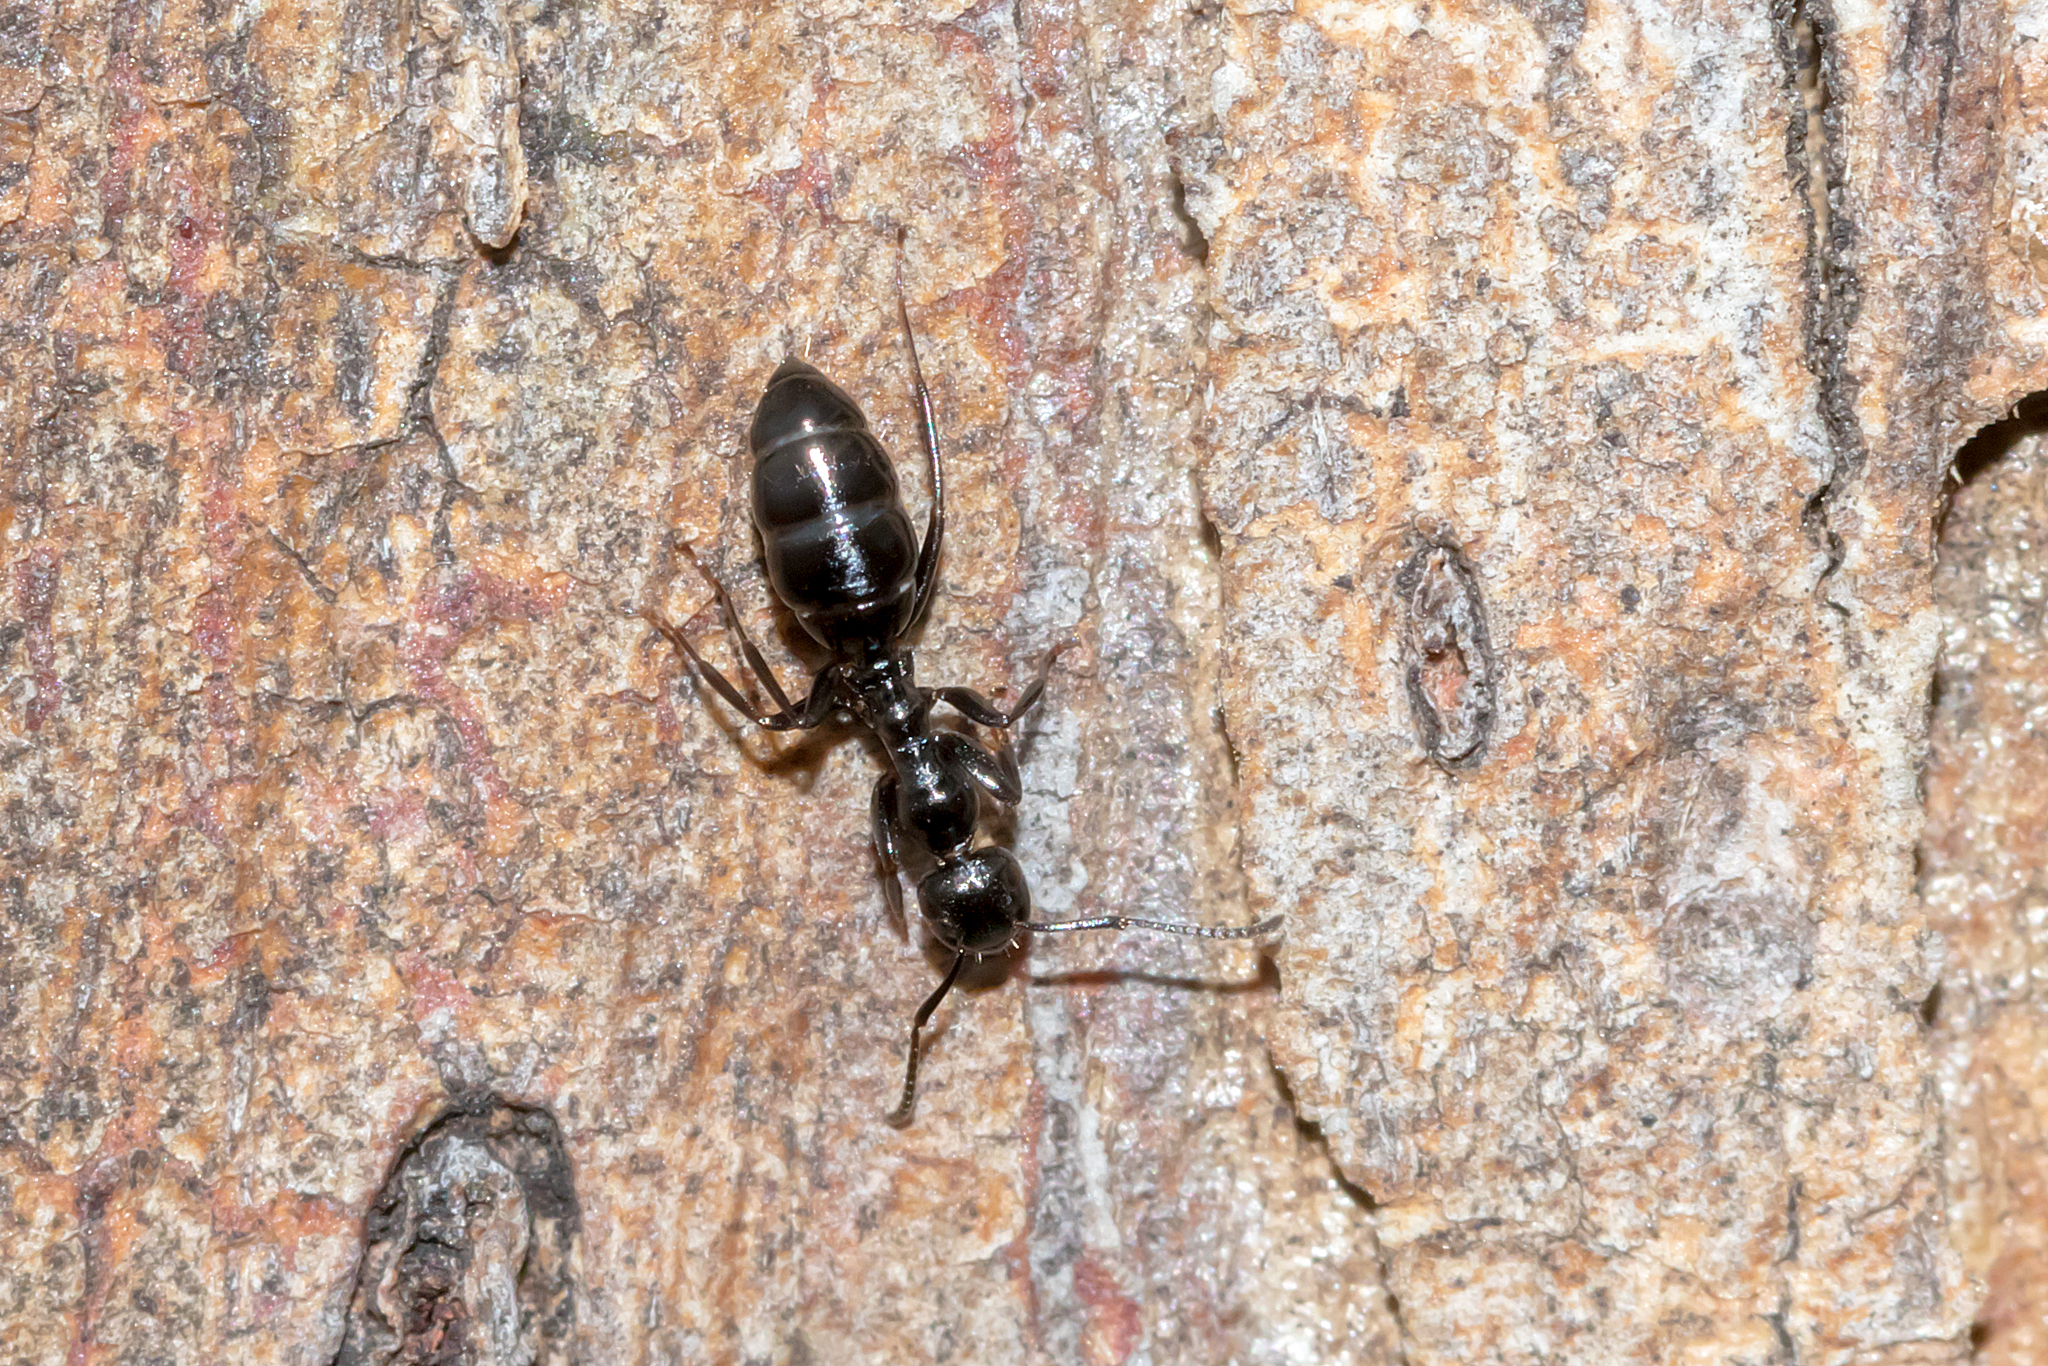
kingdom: Animalia
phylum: Arthropoda
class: Insecta
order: Hymenoptera
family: Formicidae
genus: Colobopsis
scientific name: Colobopsis gasseri
